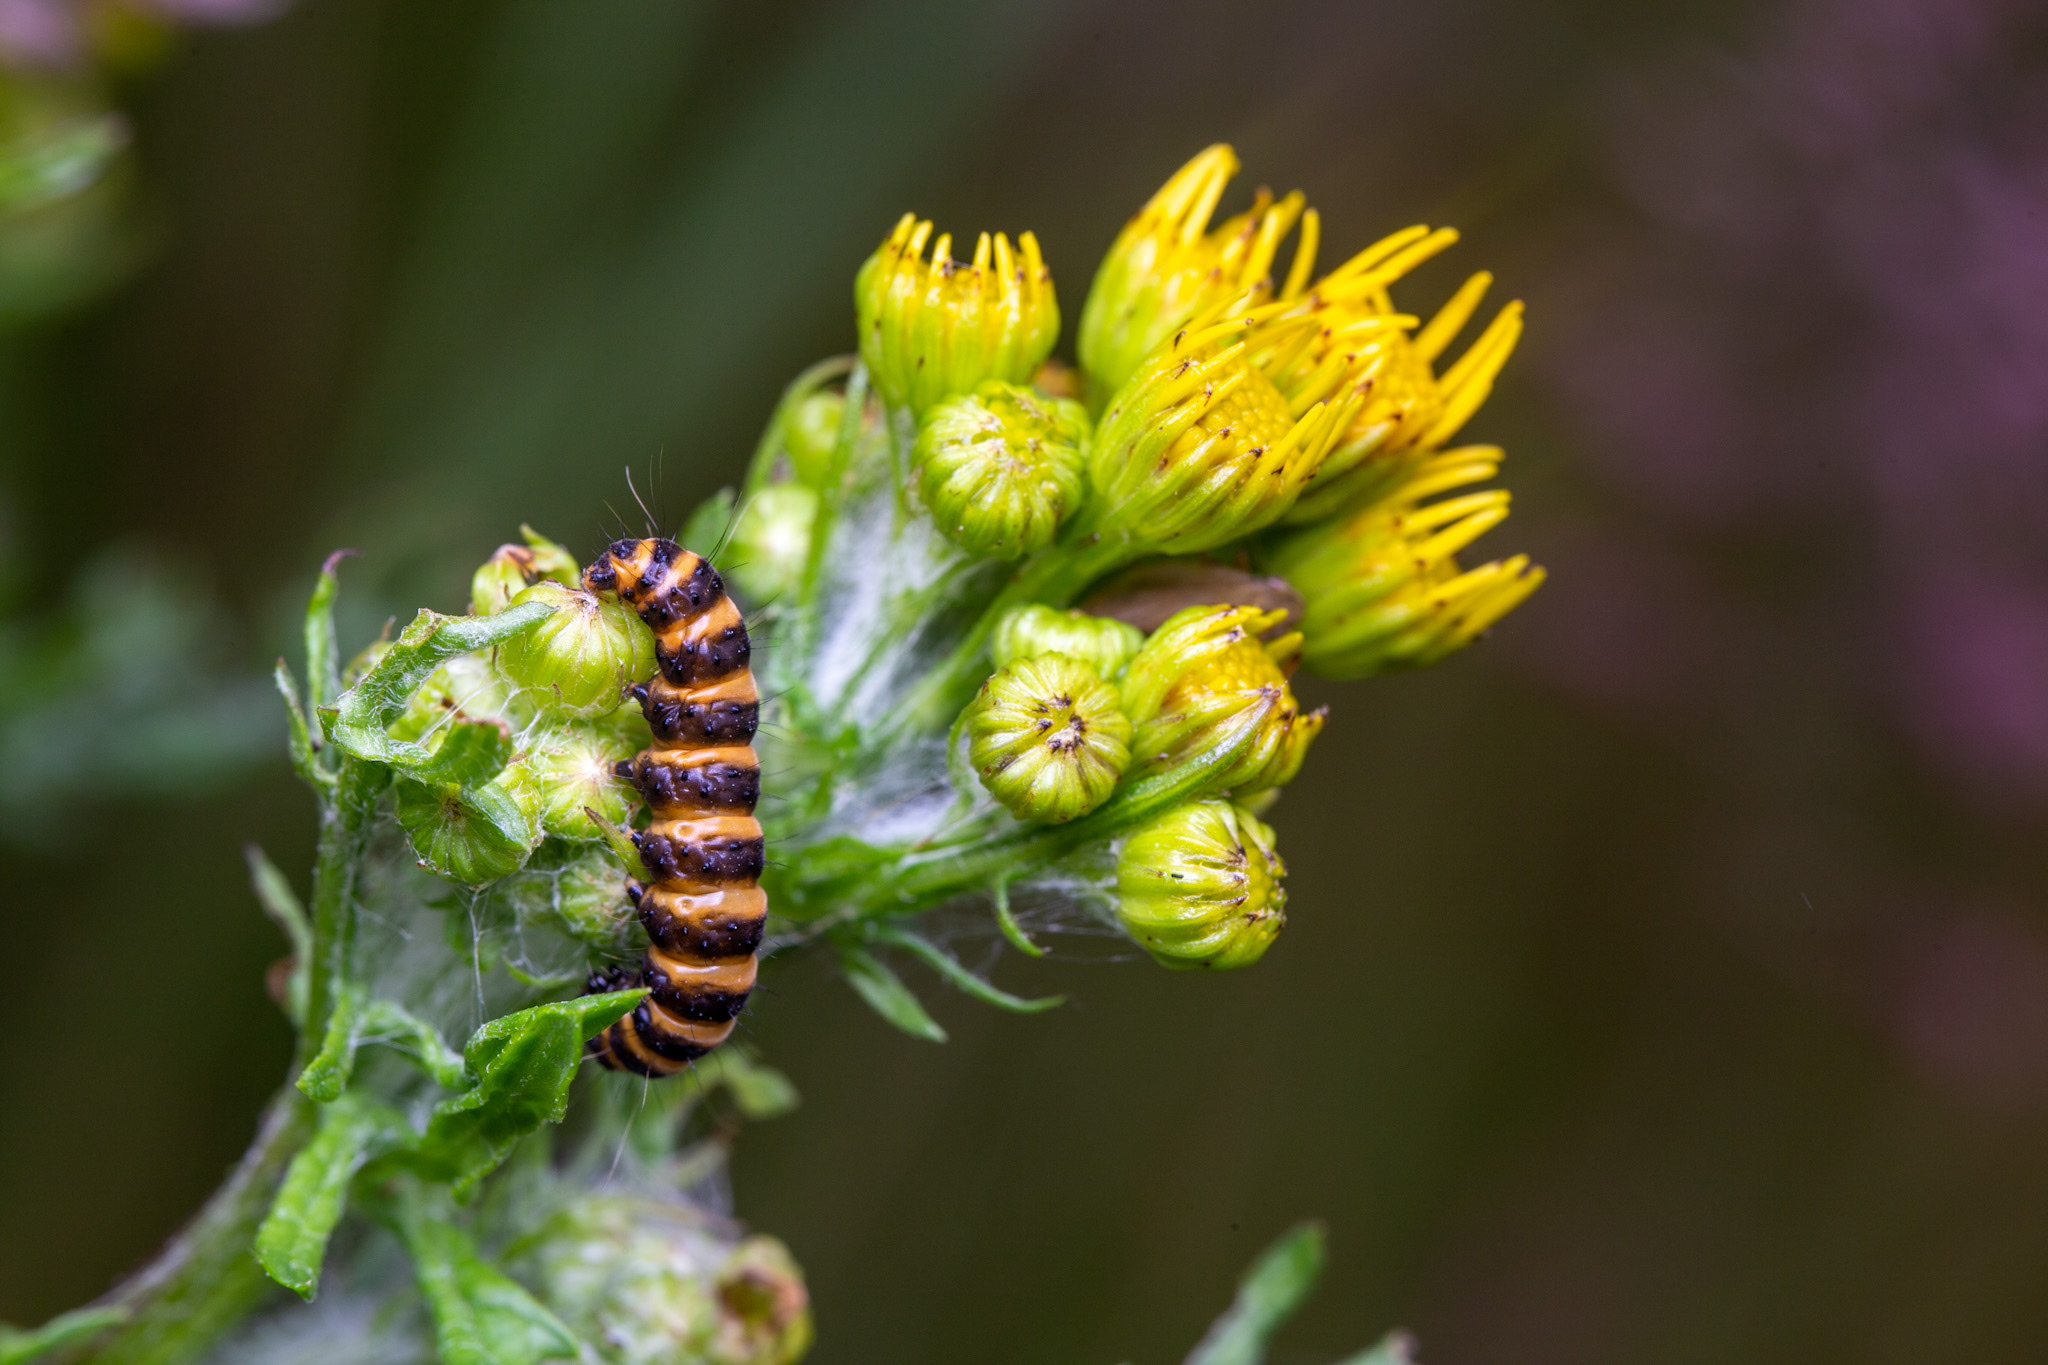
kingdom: Animalia
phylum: Arthropoda
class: Insecta
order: Lepidoptera
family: Erebidae
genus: Tyria
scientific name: Tyria jacobaeae
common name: Cinnabar
